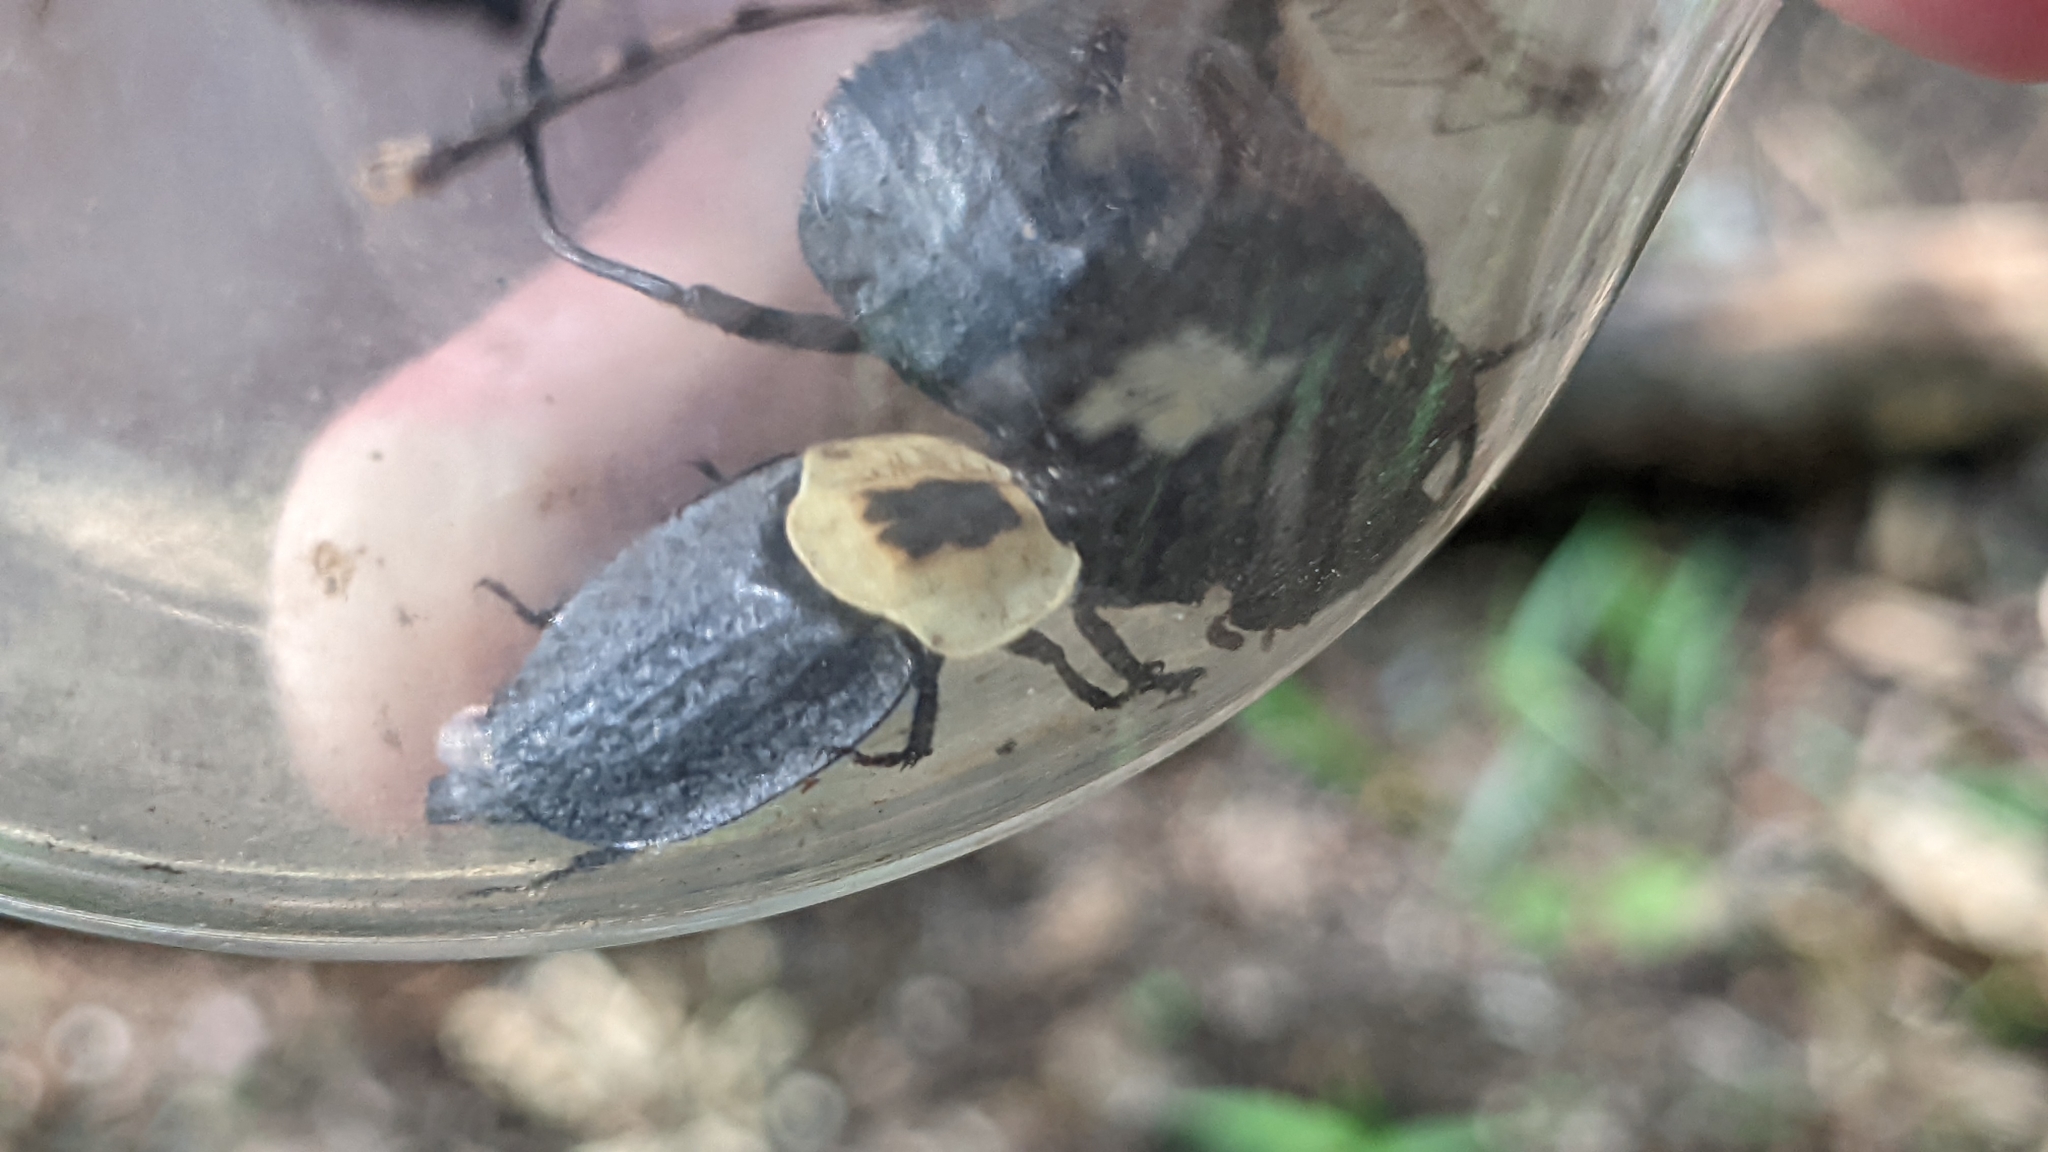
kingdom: Animalia
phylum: Arthropoda
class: Insecta
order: Coleoptera
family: Staphylinidae
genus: Necrophila
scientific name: Necrophila americana
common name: American carrion beetle
